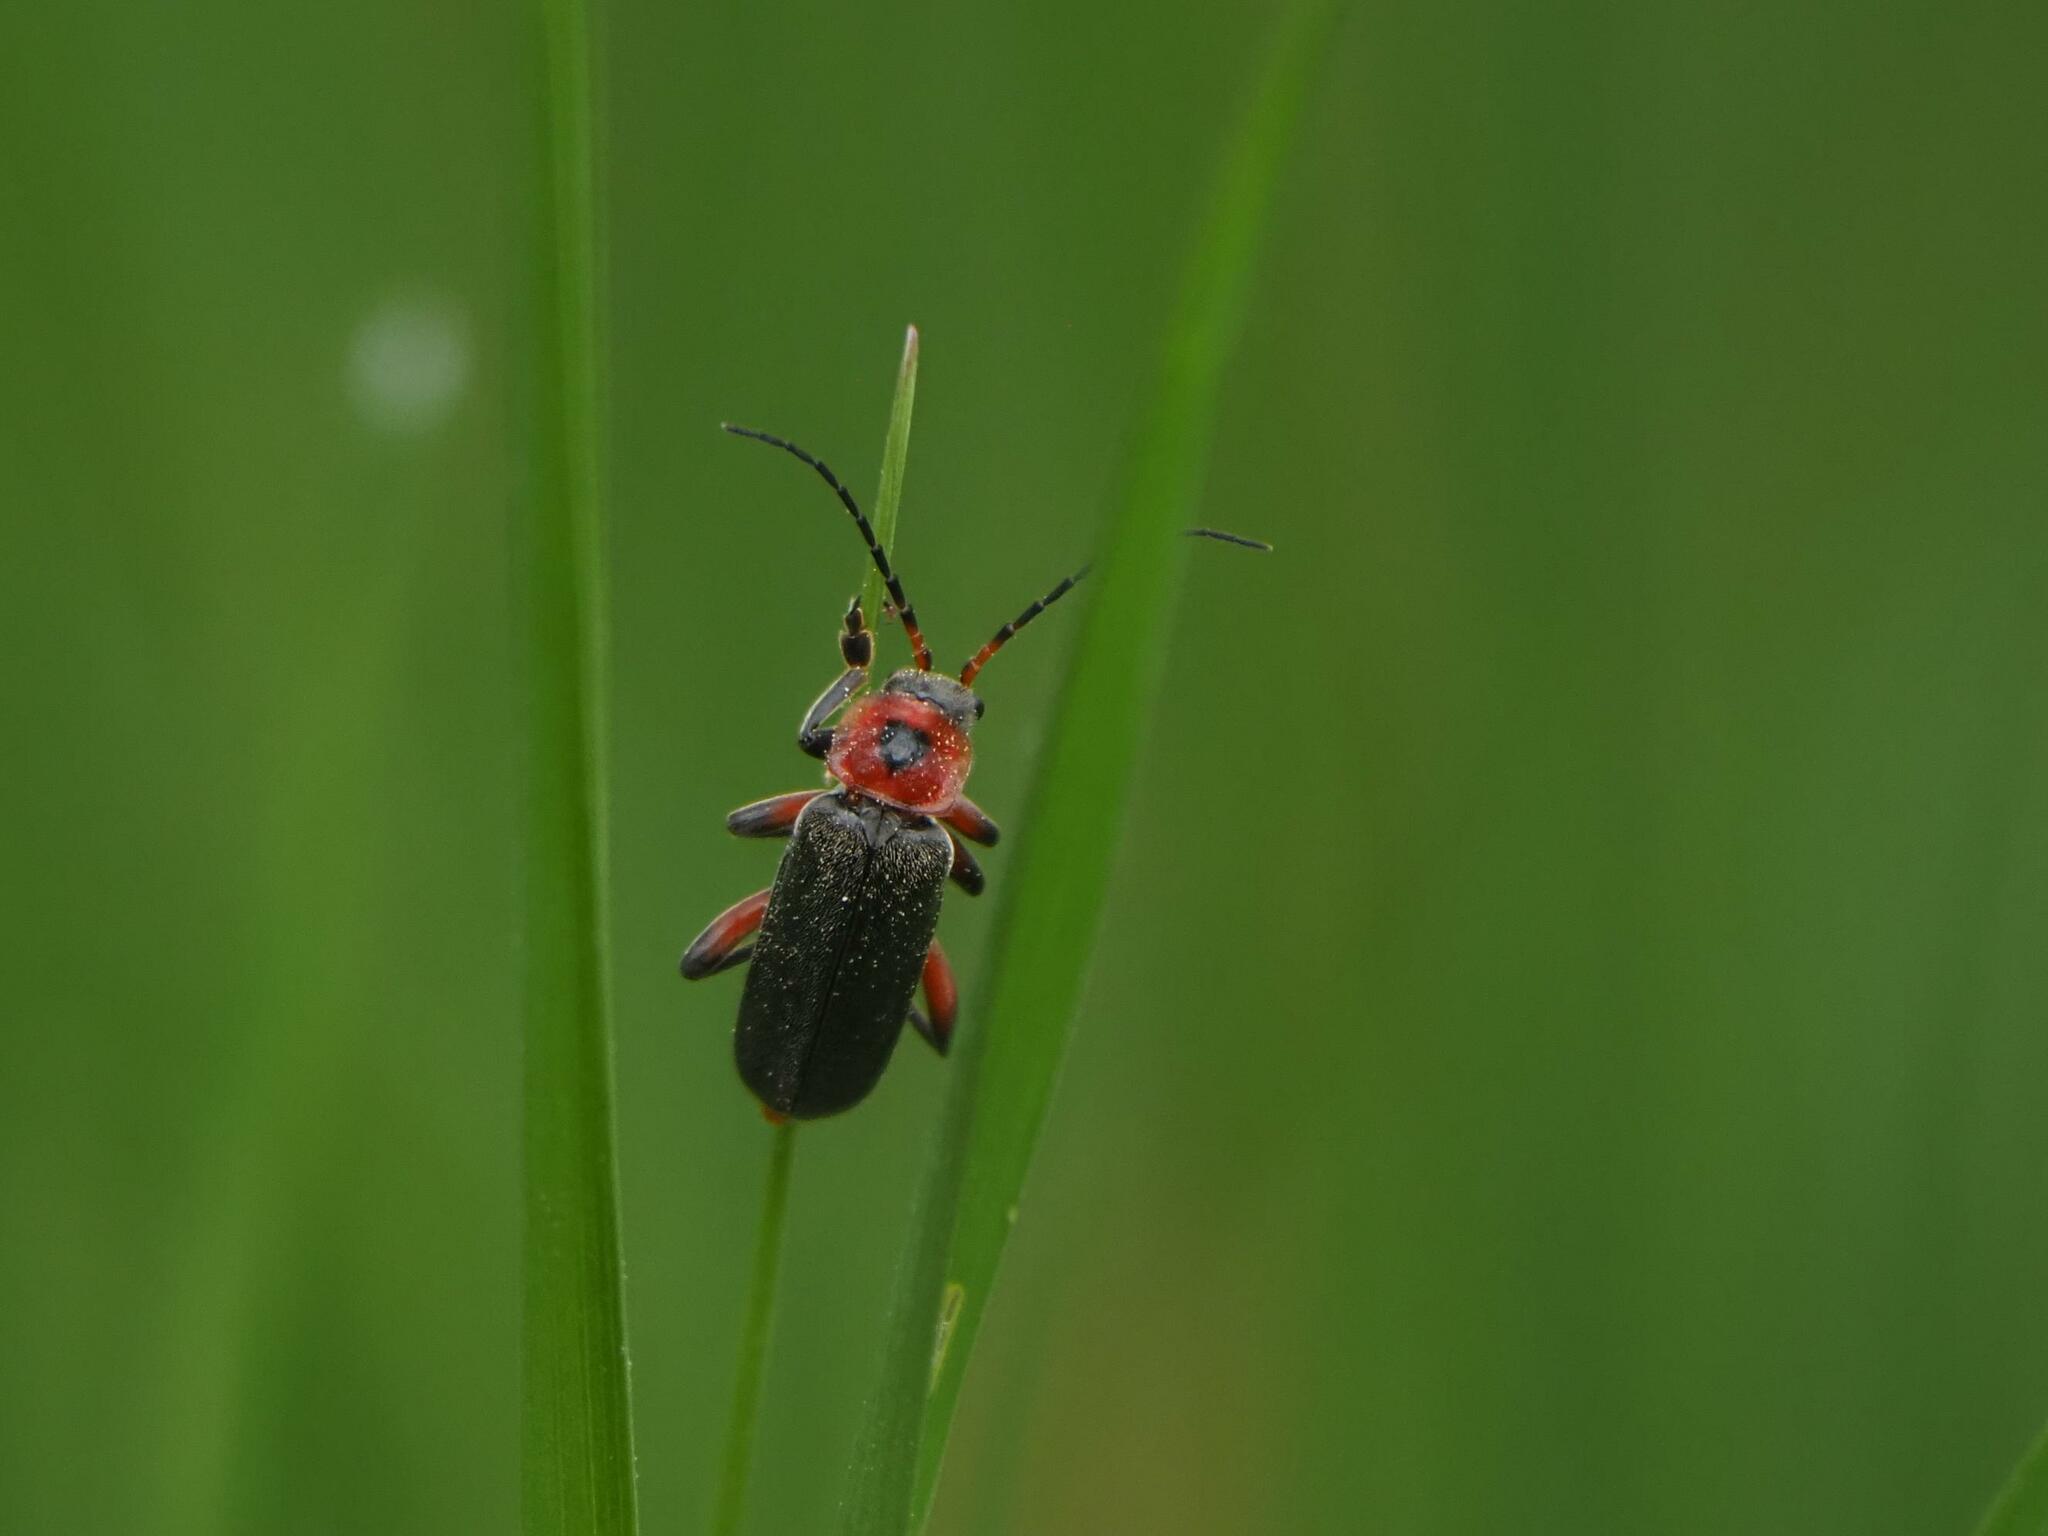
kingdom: Animalia
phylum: Arthropoda
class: Insecta
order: Coleoptera
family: Cantharidae
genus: Cantharis
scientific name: Cantharis rustica
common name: Soldier beetle
